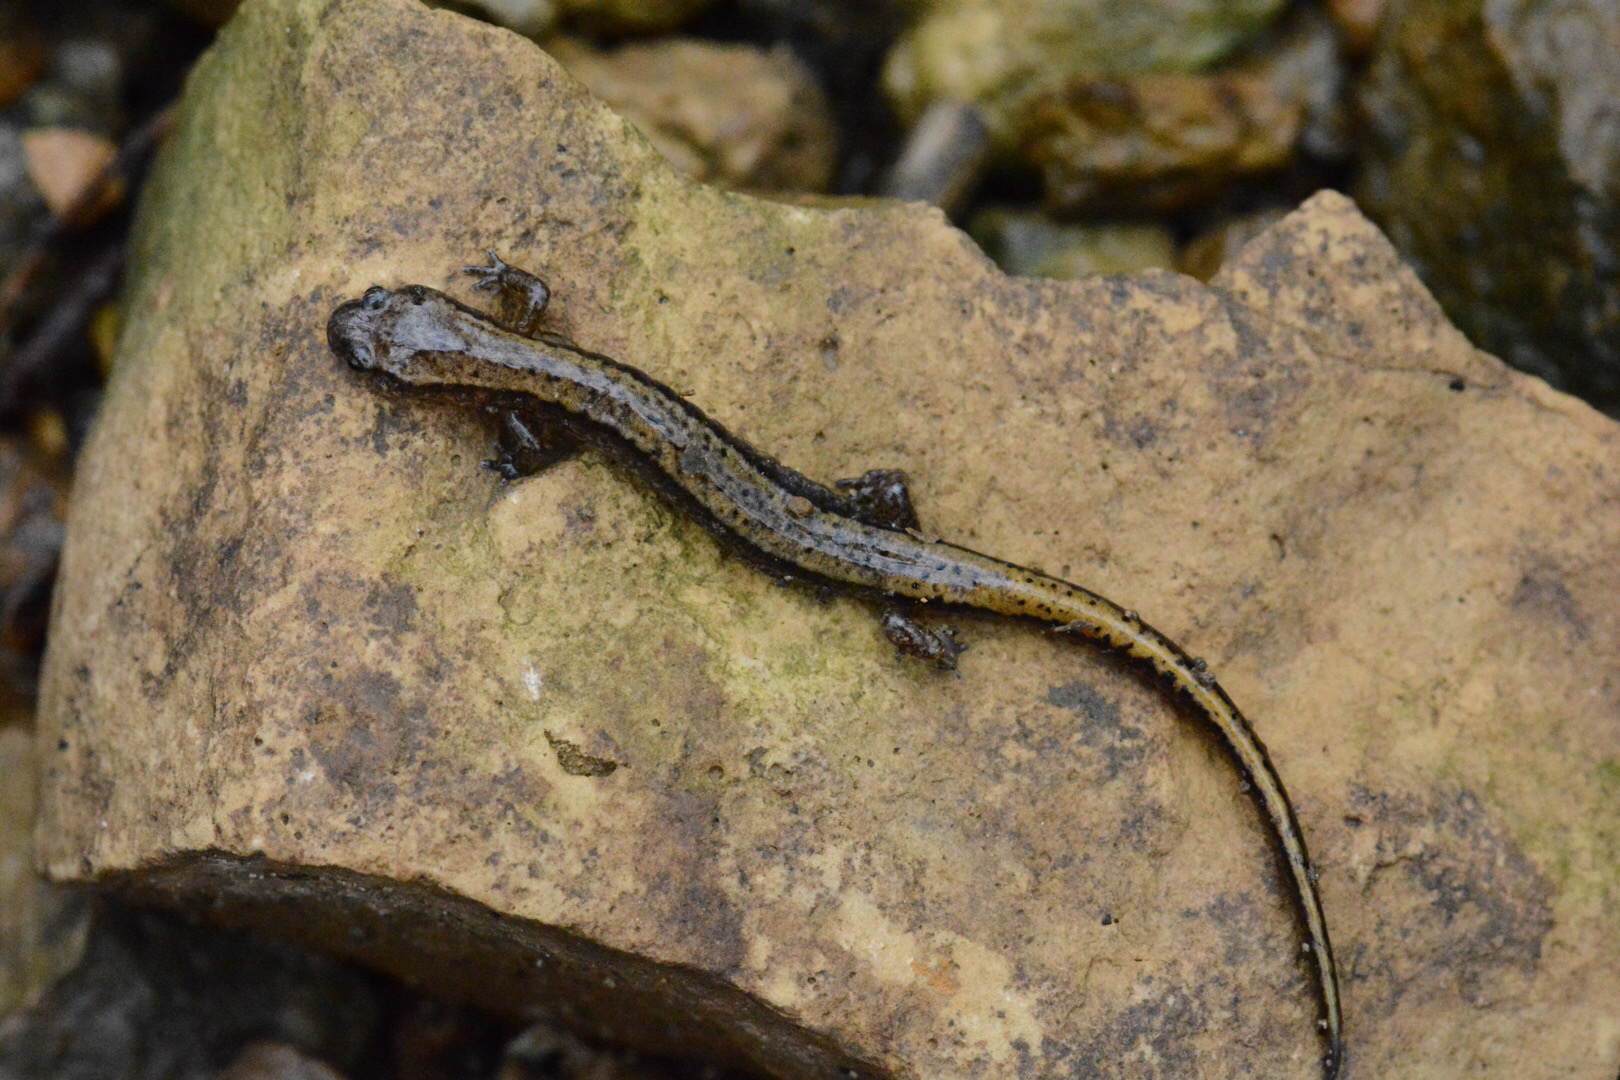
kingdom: Animalia
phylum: Chordata
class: Amphibia
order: Caudata
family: Plethodontidae
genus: Eurycea
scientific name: Eurycea cirrigera
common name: Southern two-lined salamander
